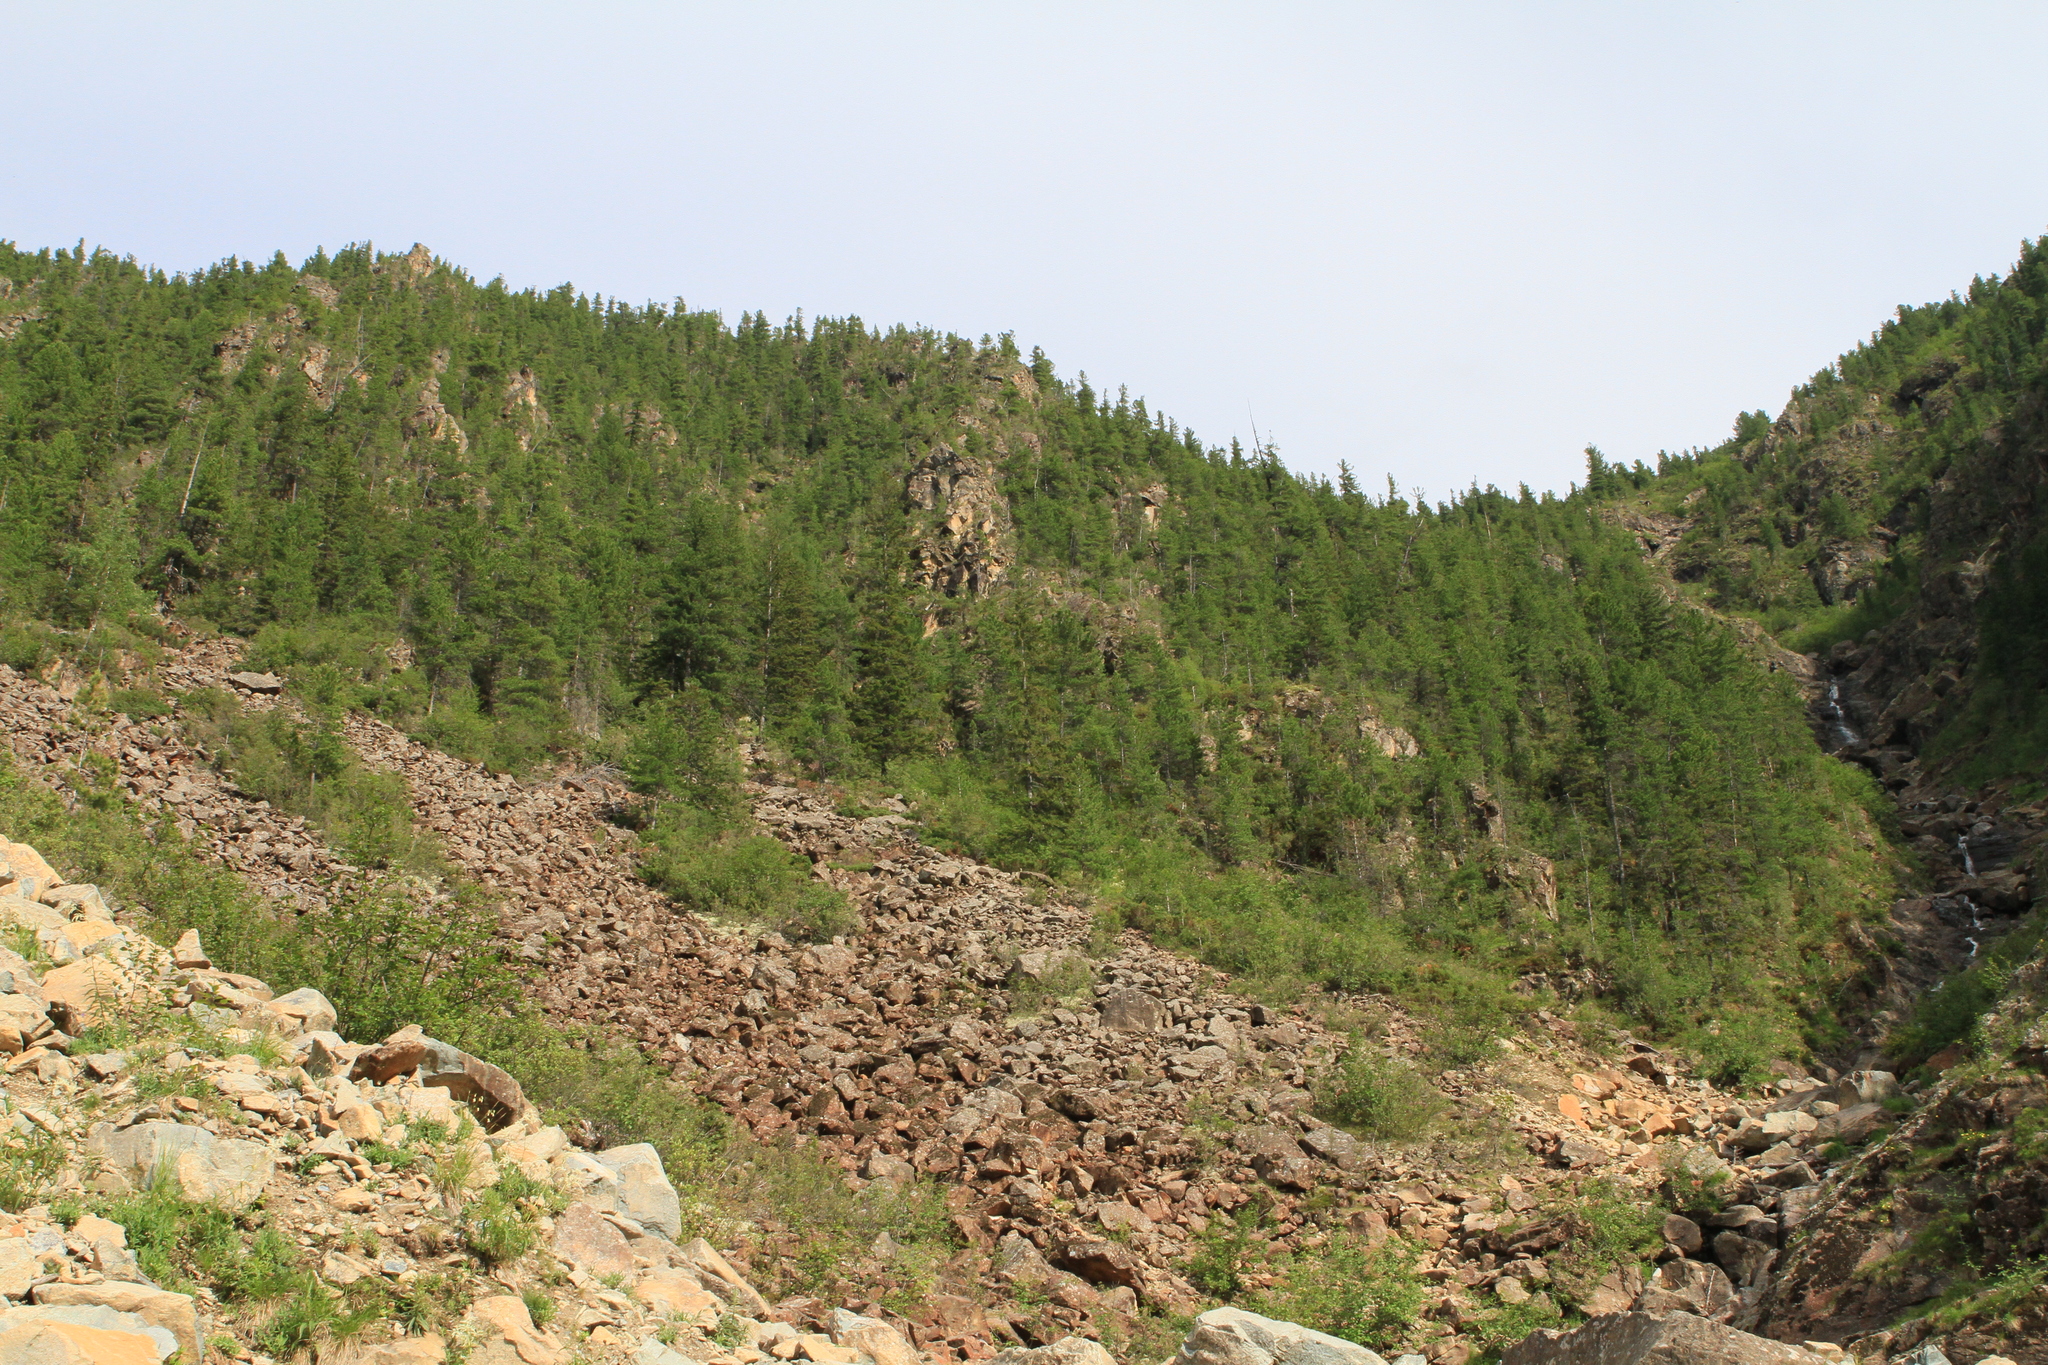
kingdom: Plantae
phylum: Tracheophyta
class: Pinopsida
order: Pinales
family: Pinaceae
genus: Pinus
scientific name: Pinus sibirica
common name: Siberian pine
